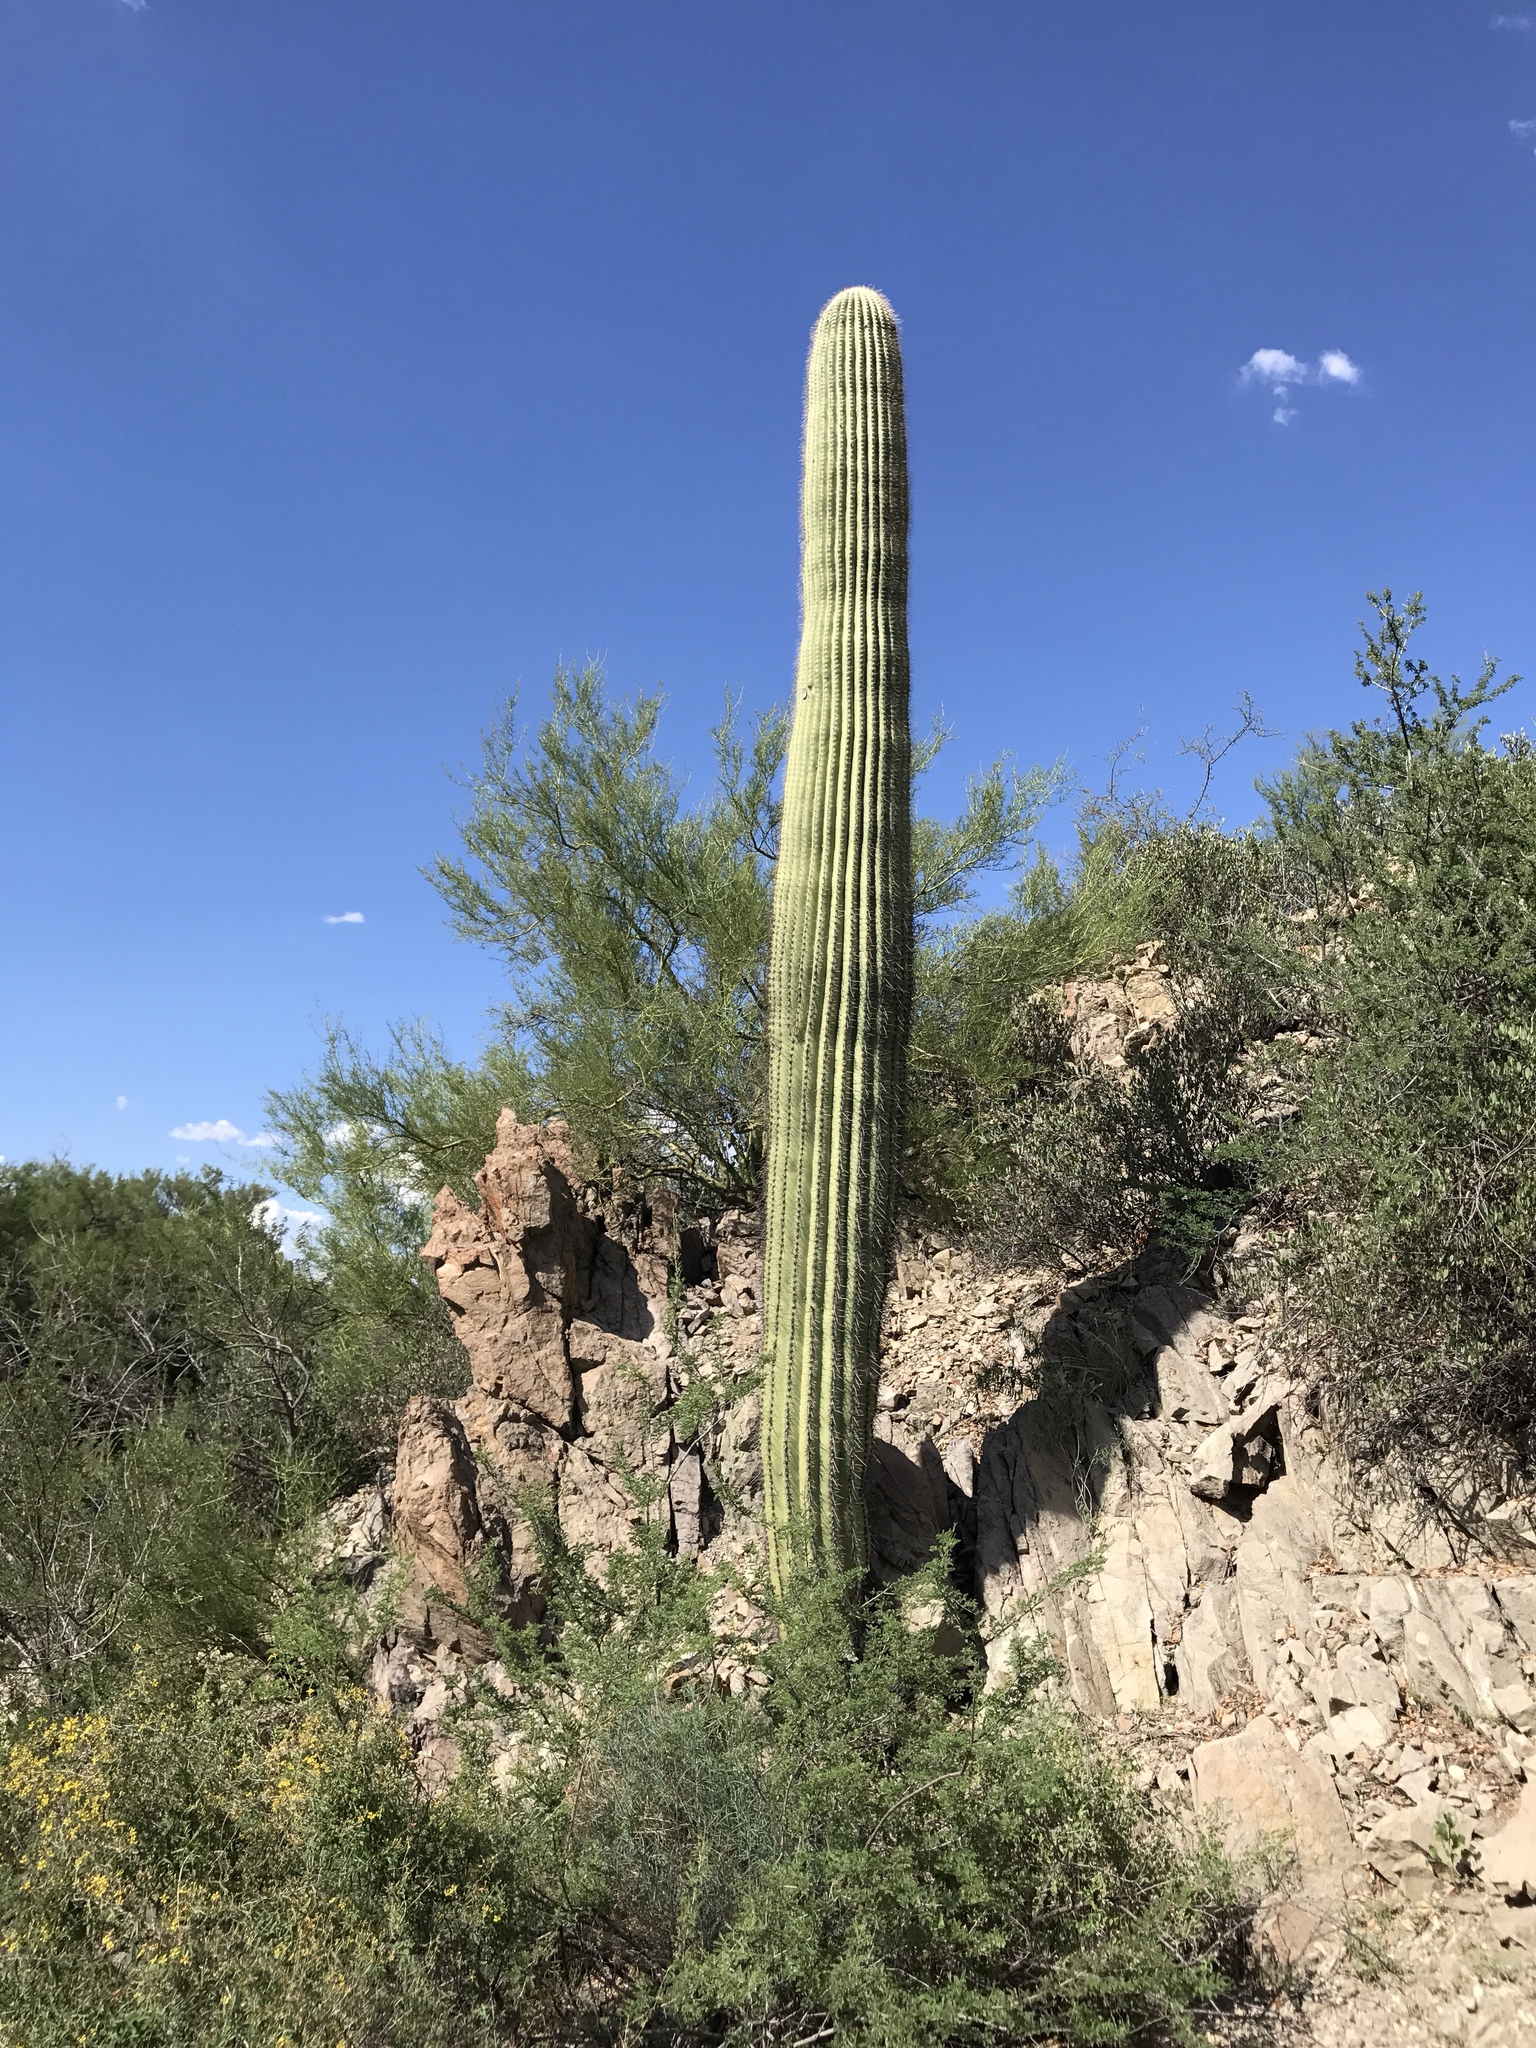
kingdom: Plantae
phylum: Tracheophyta
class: Magnoliopsida
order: Caryophyllales
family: Cactaceae
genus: Carnegiea
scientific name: Carnegiea gigantea
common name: Saguaro
